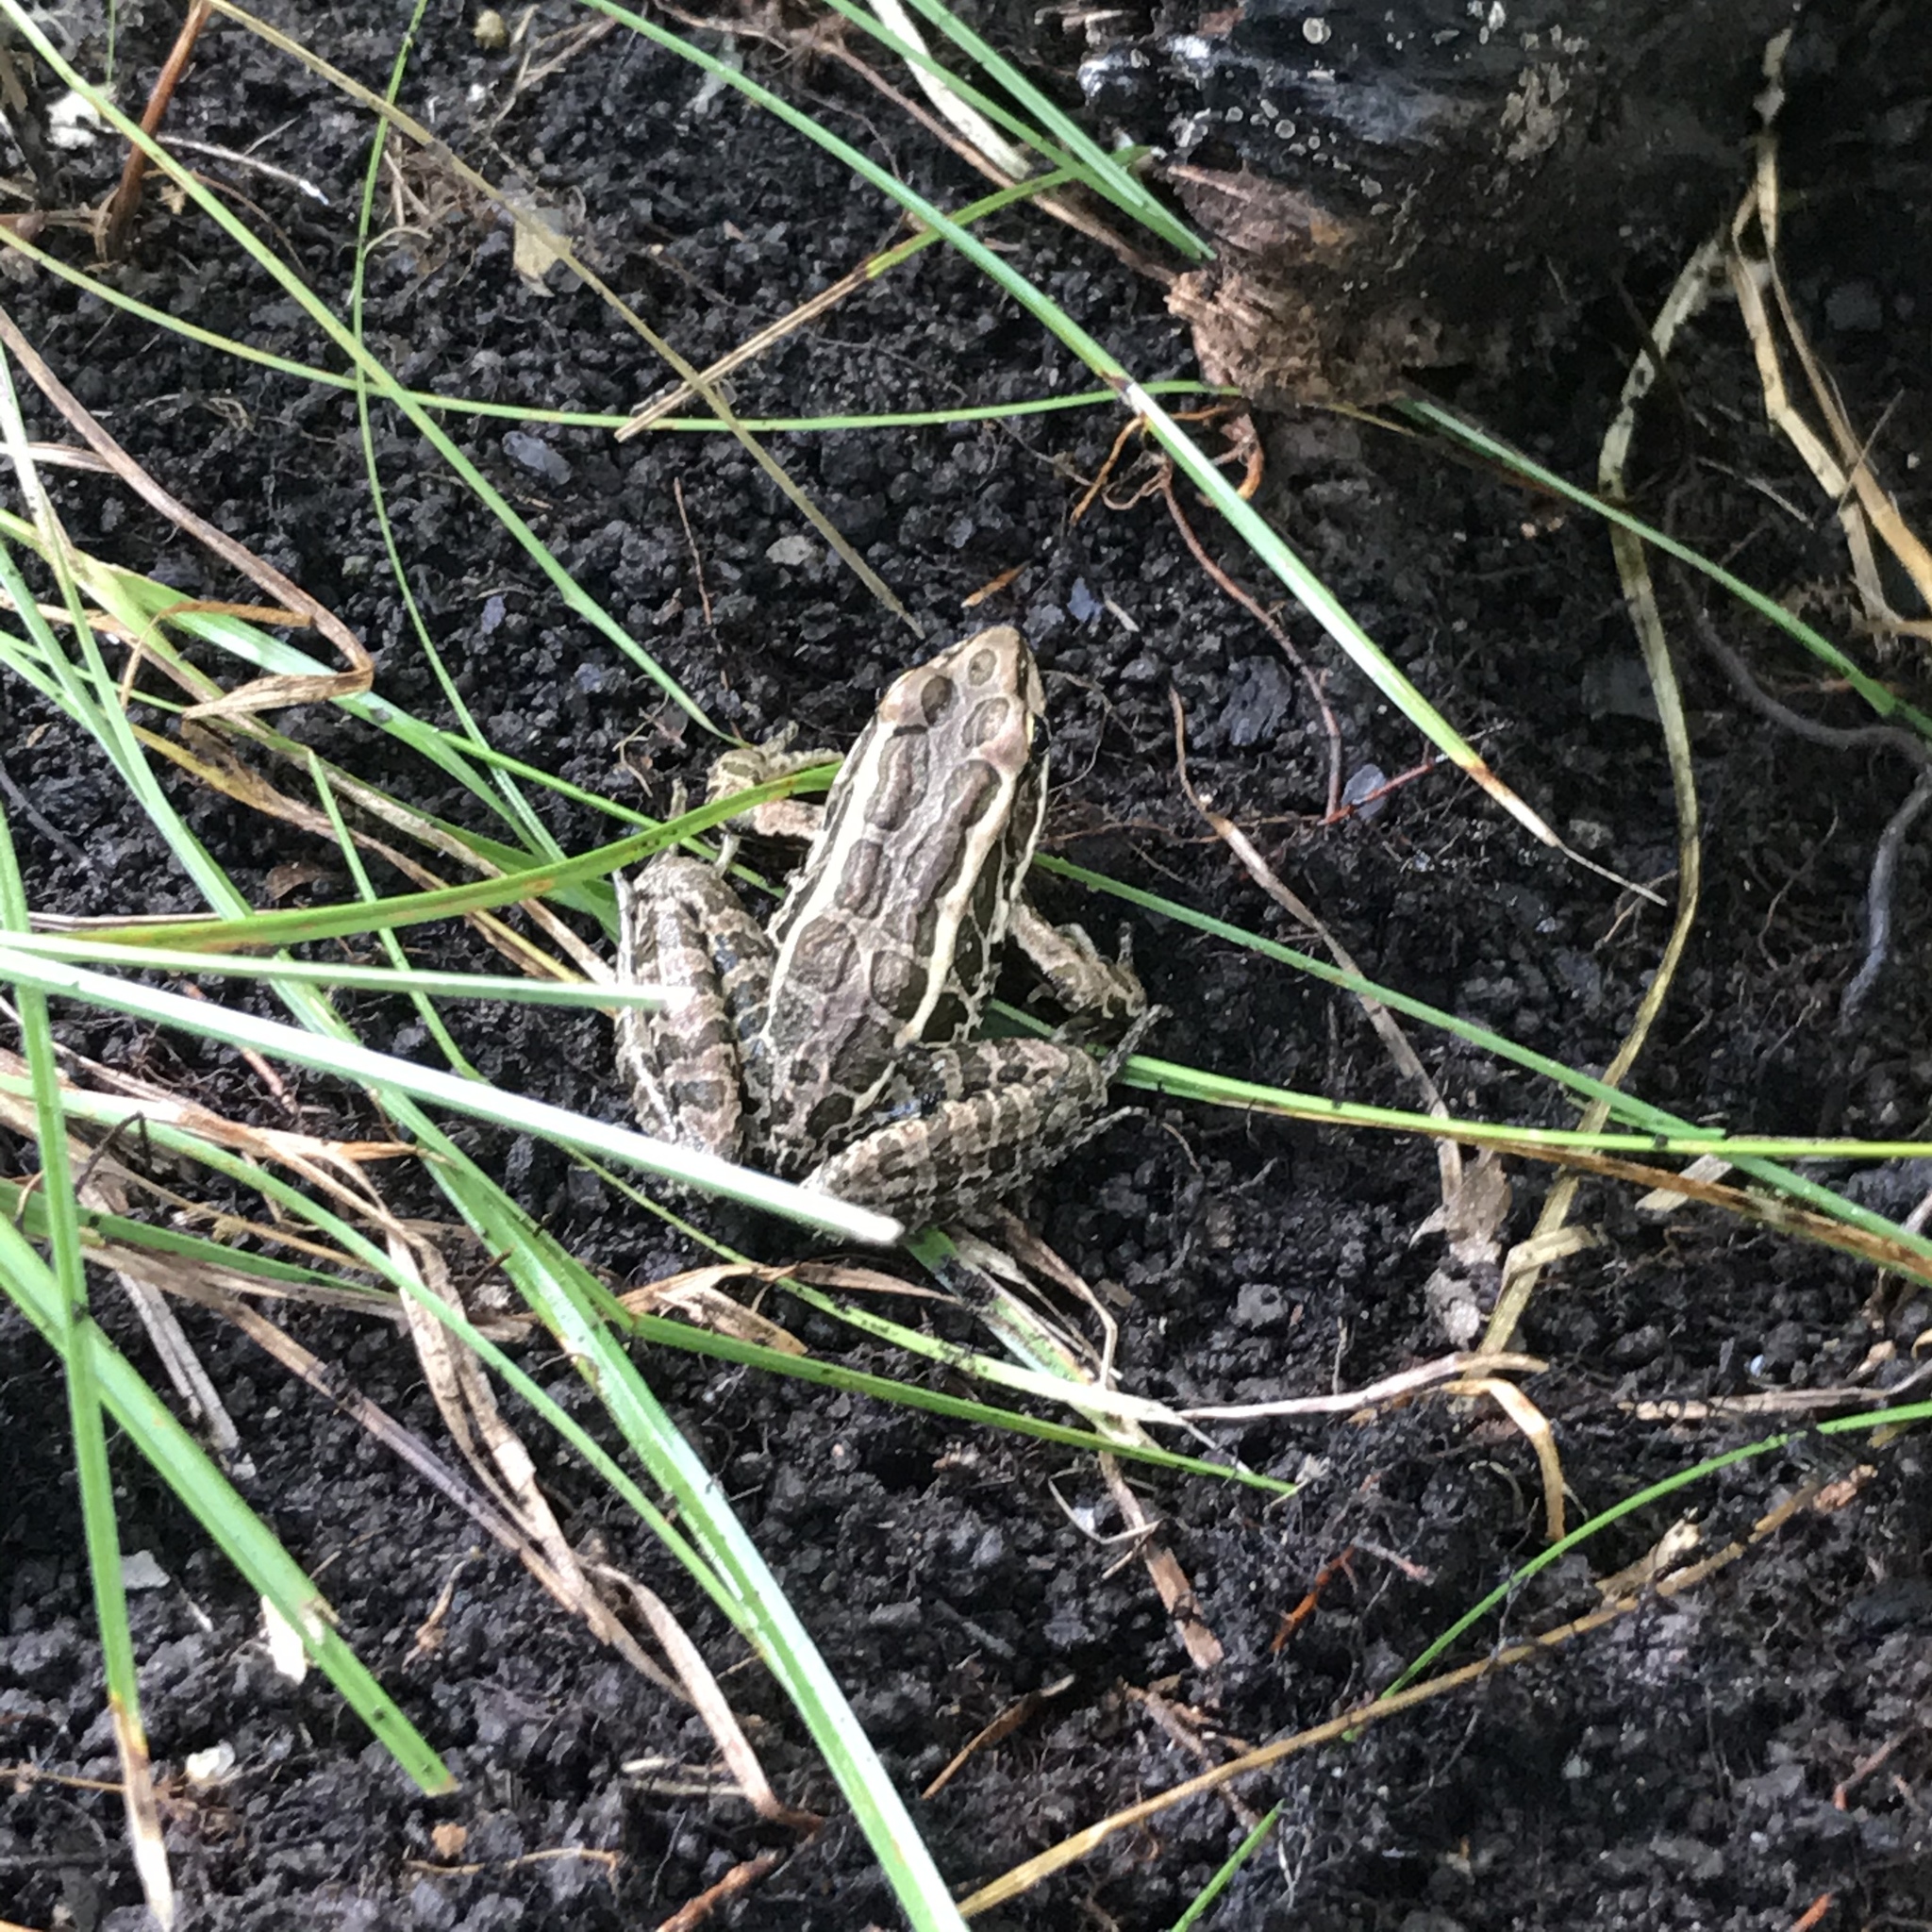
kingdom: Animalia
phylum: Chordata
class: Amphibia
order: Anura
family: Ranidae
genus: Lithobates
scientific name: Lithobates palustris
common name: Pickerel frog
